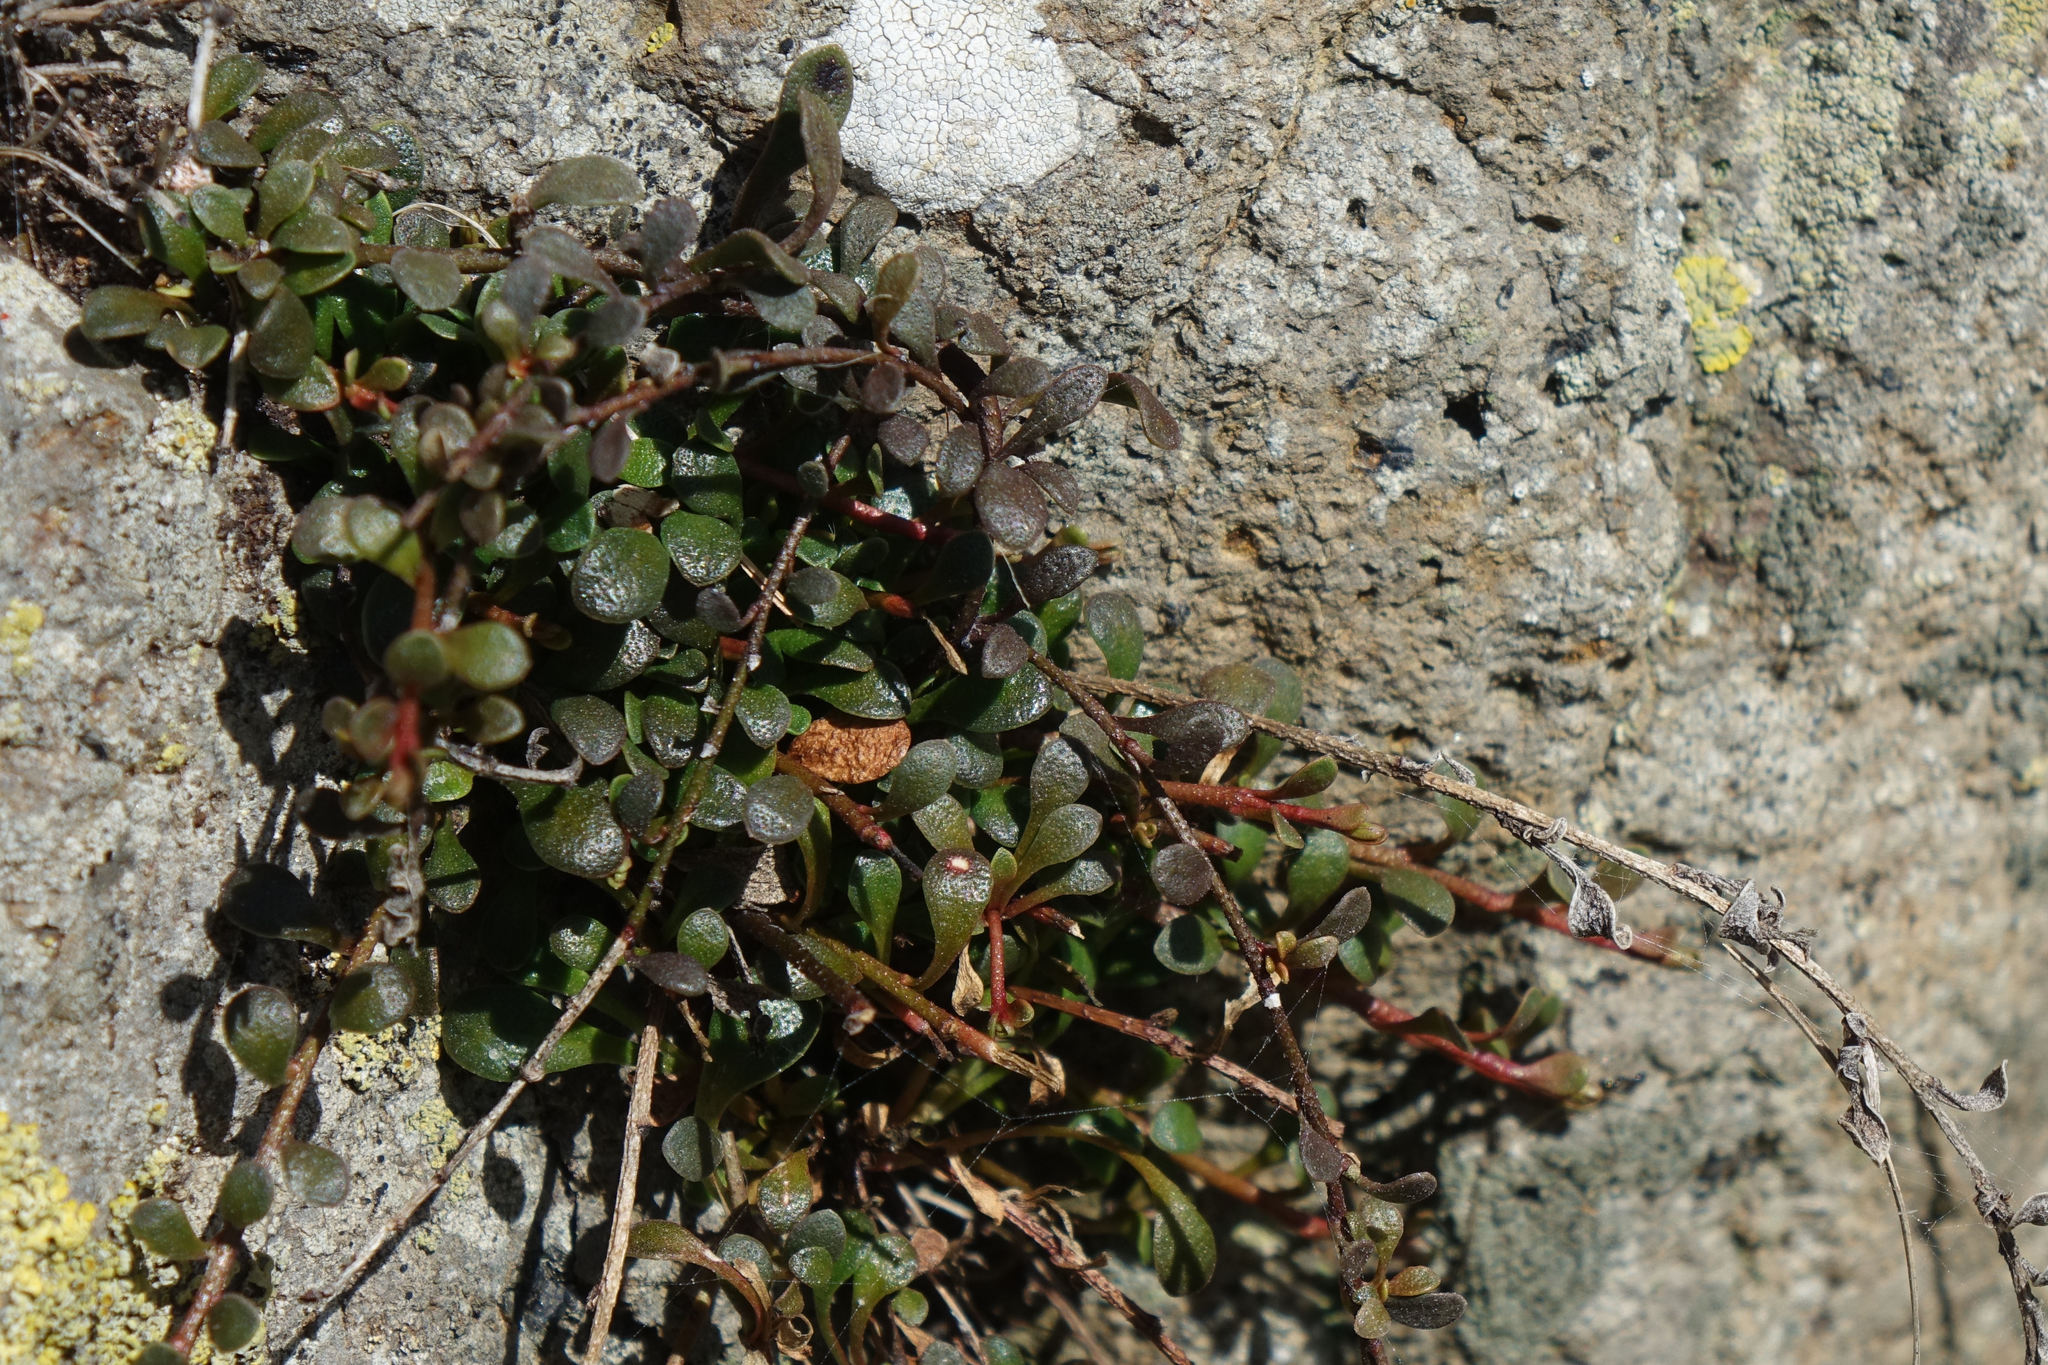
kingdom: Plantae
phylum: Tracheophyta
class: Magnoliopsida
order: Ericales
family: Primulaceae
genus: Samolus
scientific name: Samolus repens
